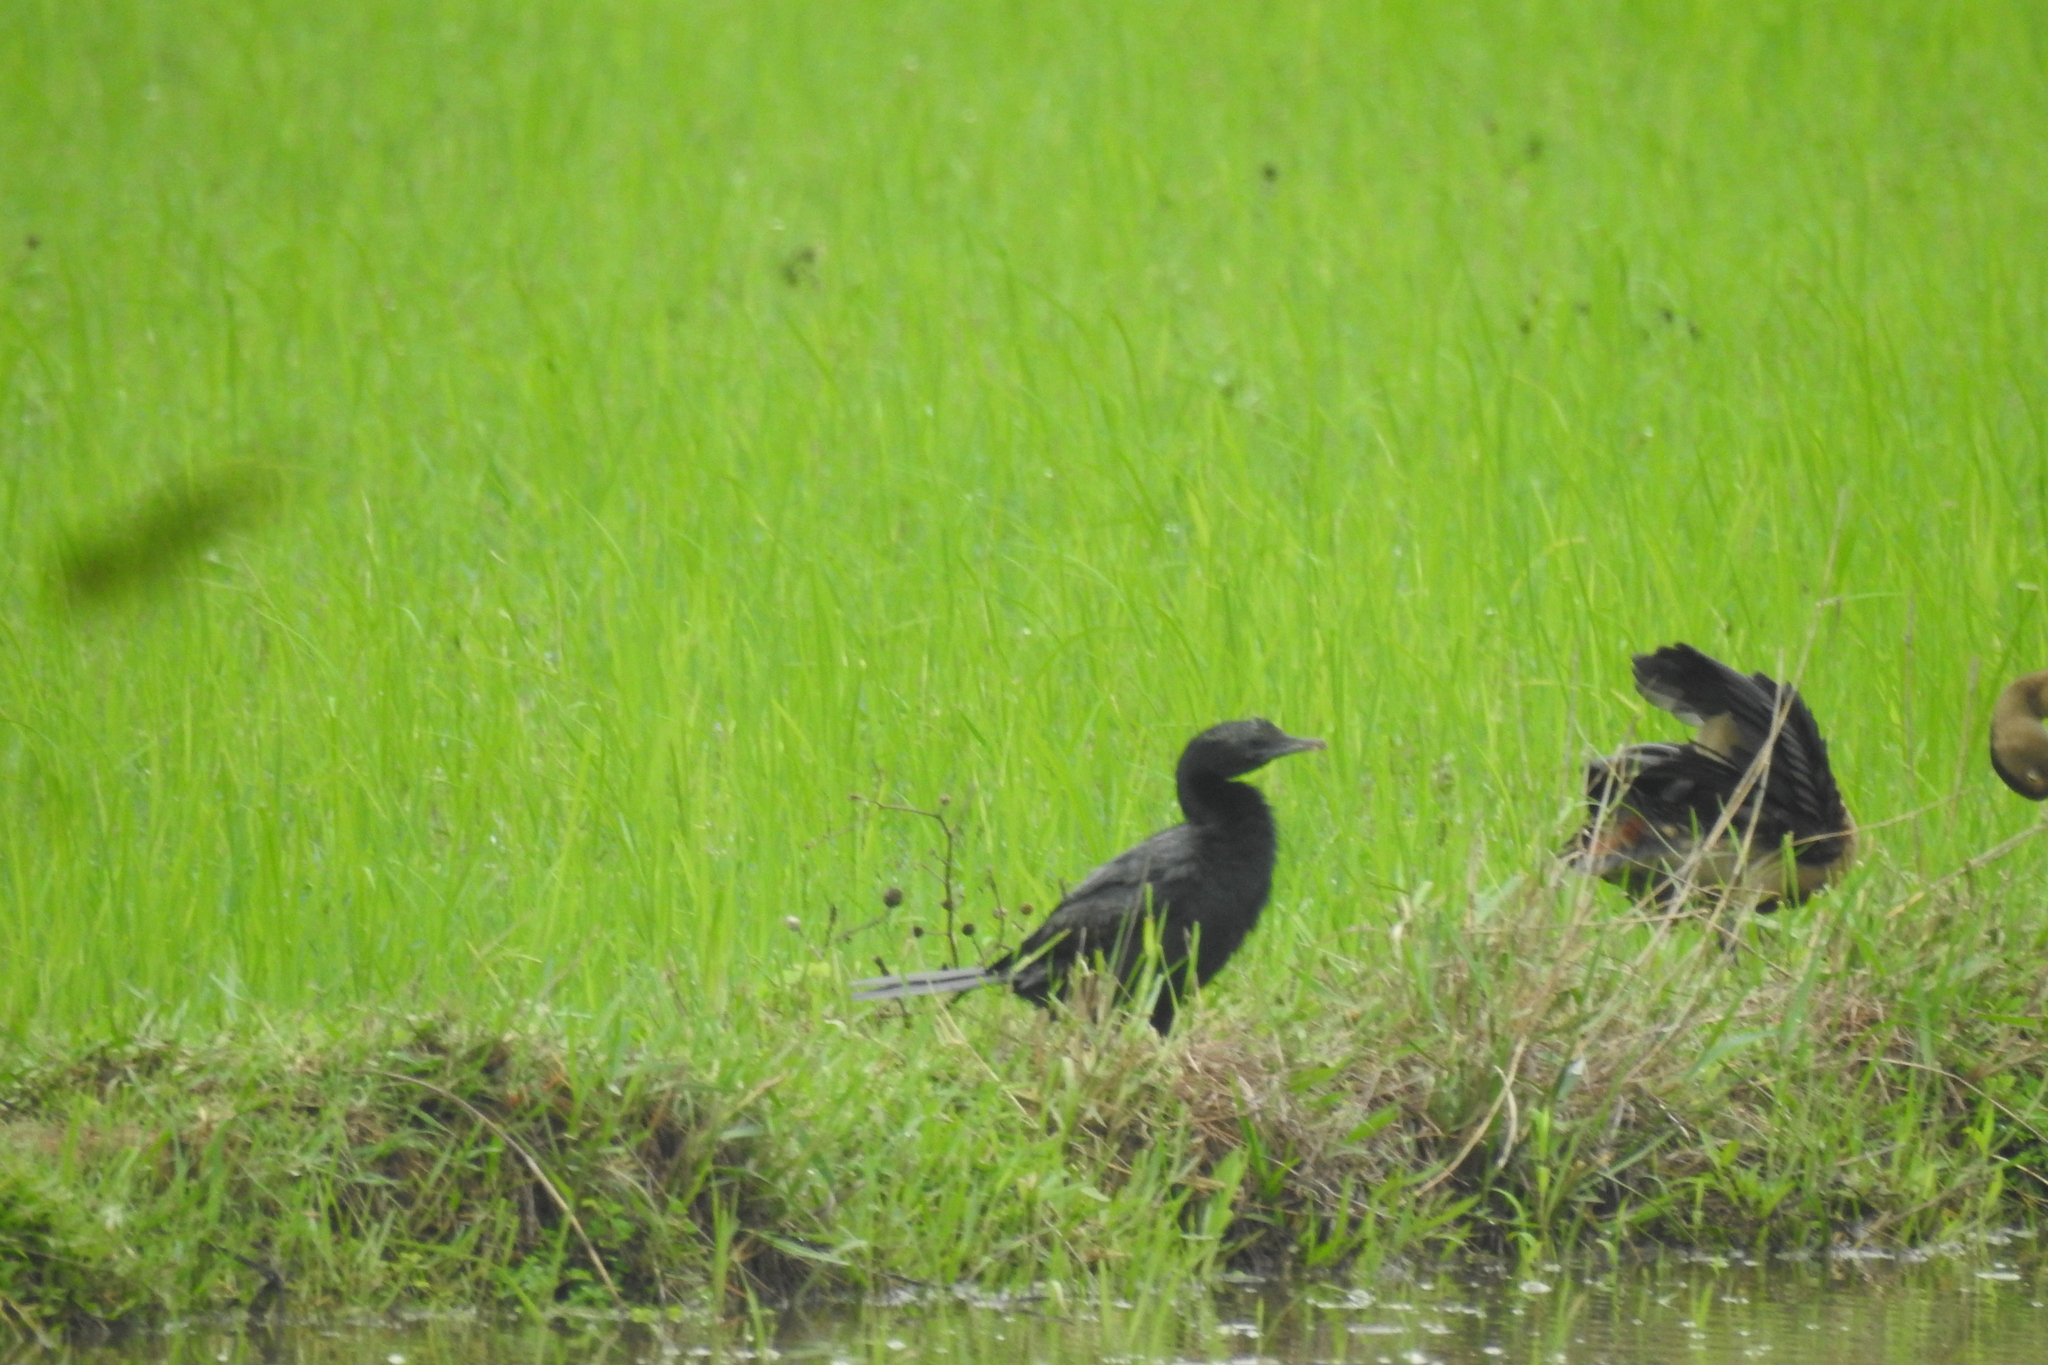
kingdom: Animalia
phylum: Chordata
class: Aves
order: Suliformes
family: Phalacrocoracidae
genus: Microcarbo
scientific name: Microcarbo niger
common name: Little cormorant
